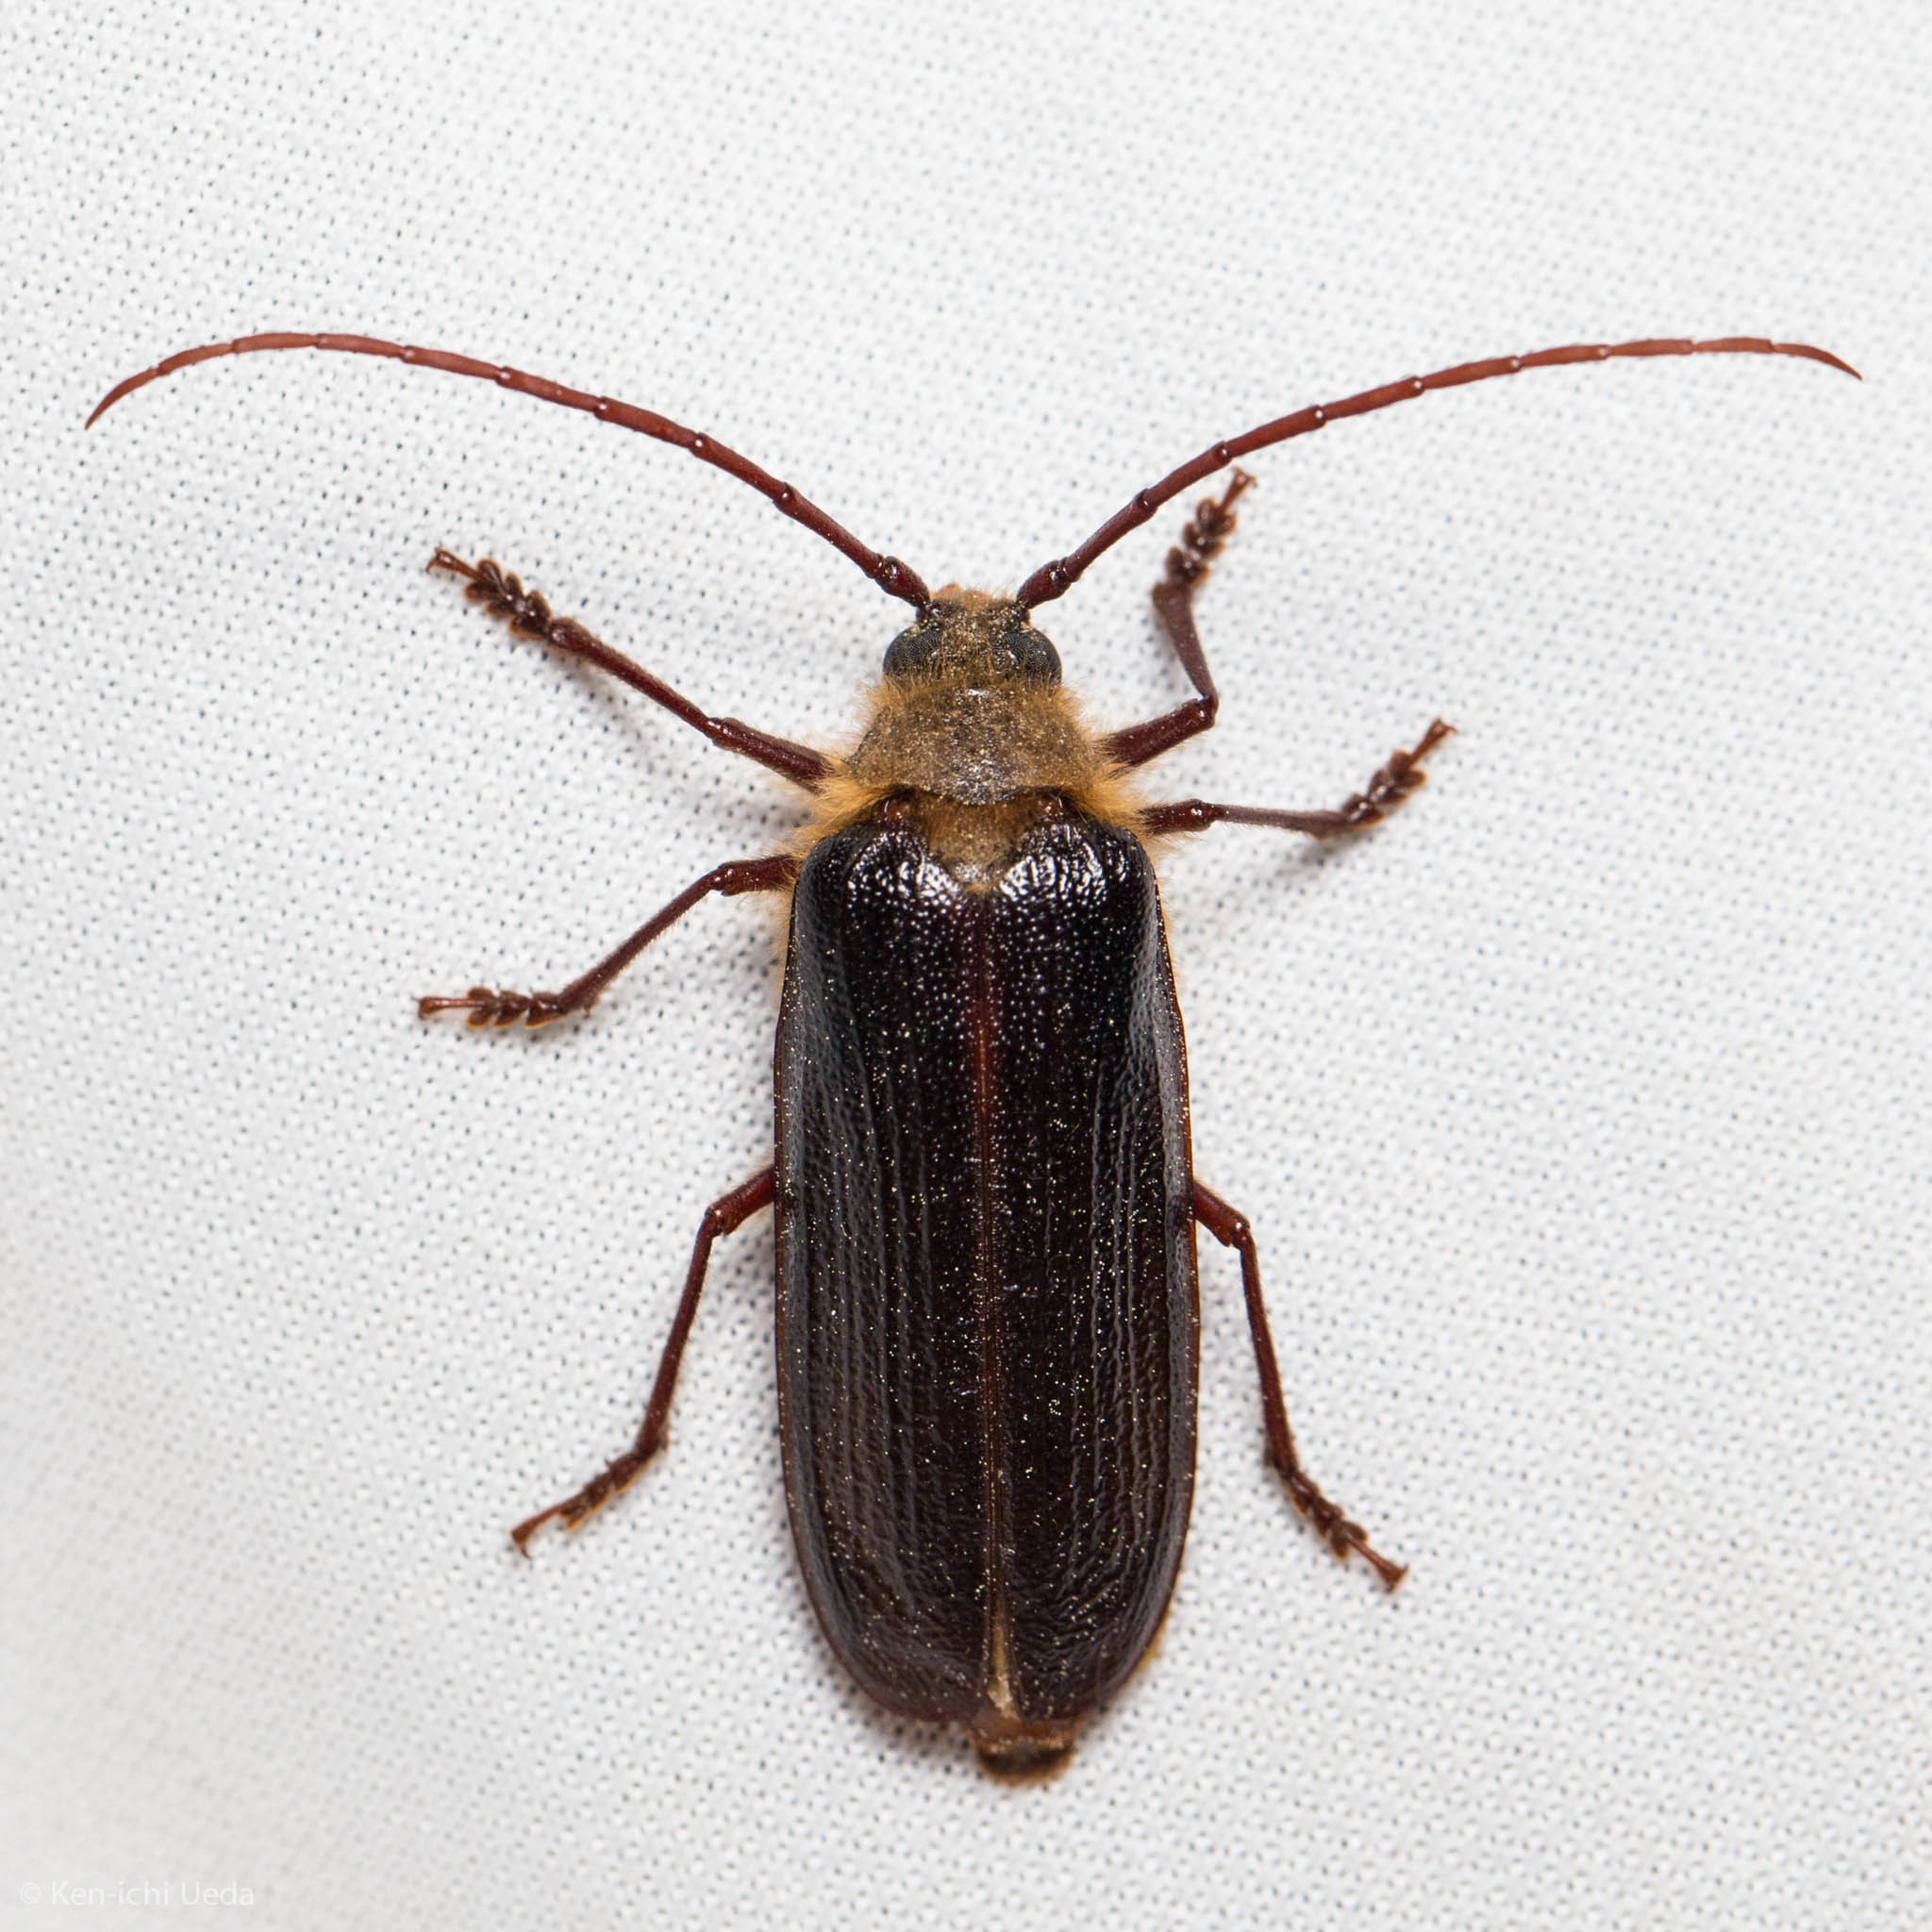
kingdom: Animalia
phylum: Arthropoda
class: Insecta
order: Coleoptera
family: Cerambycidae
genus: Tragosoma
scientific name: Tragosoma harrisii
